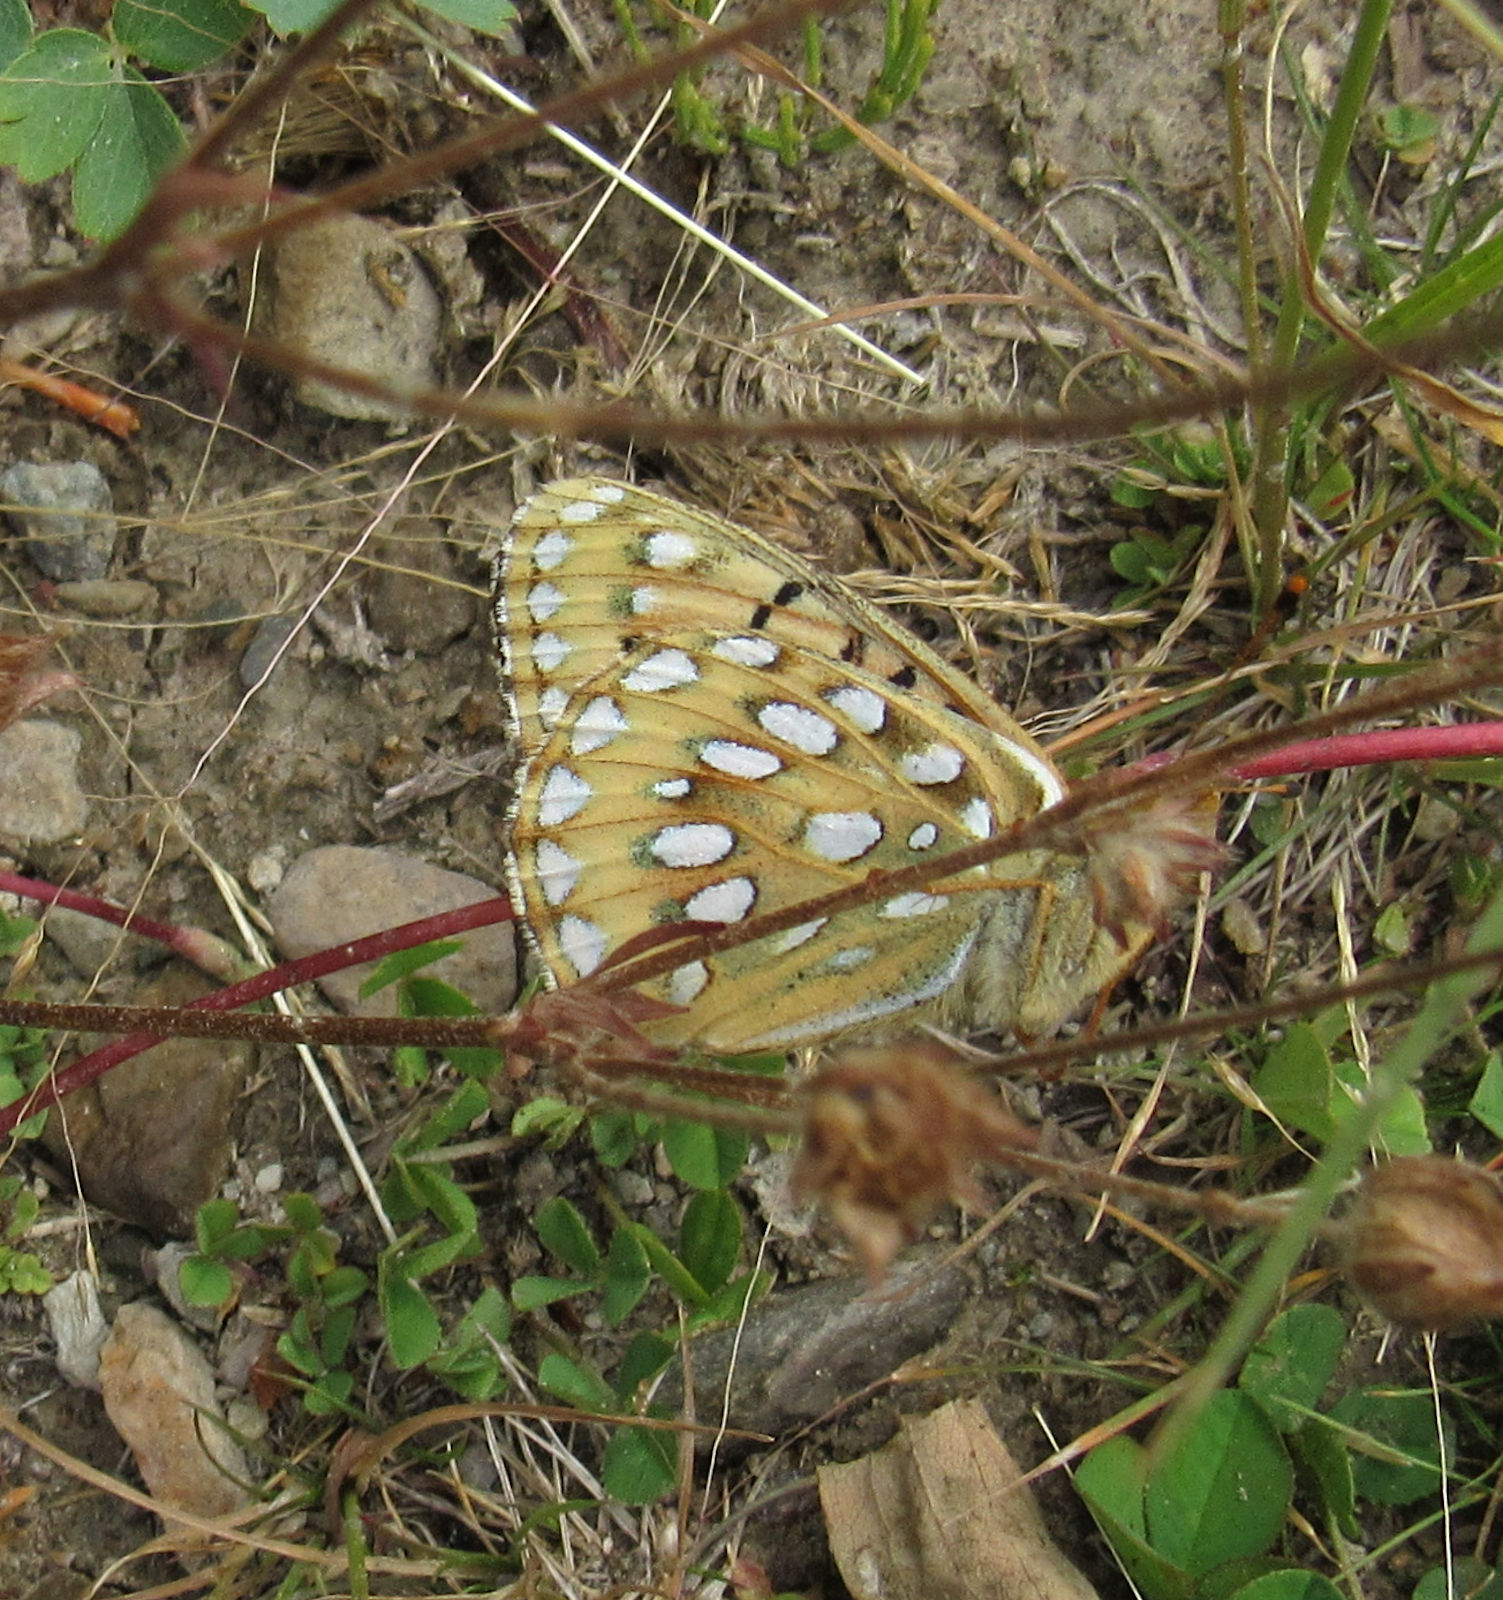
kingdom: Animalia
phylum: Arthropoda
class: Insecta
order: Lepidoptera
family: Nymphalidae
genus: Speyeria
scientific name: Speyeria mormonia
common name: Mormon fritillary
